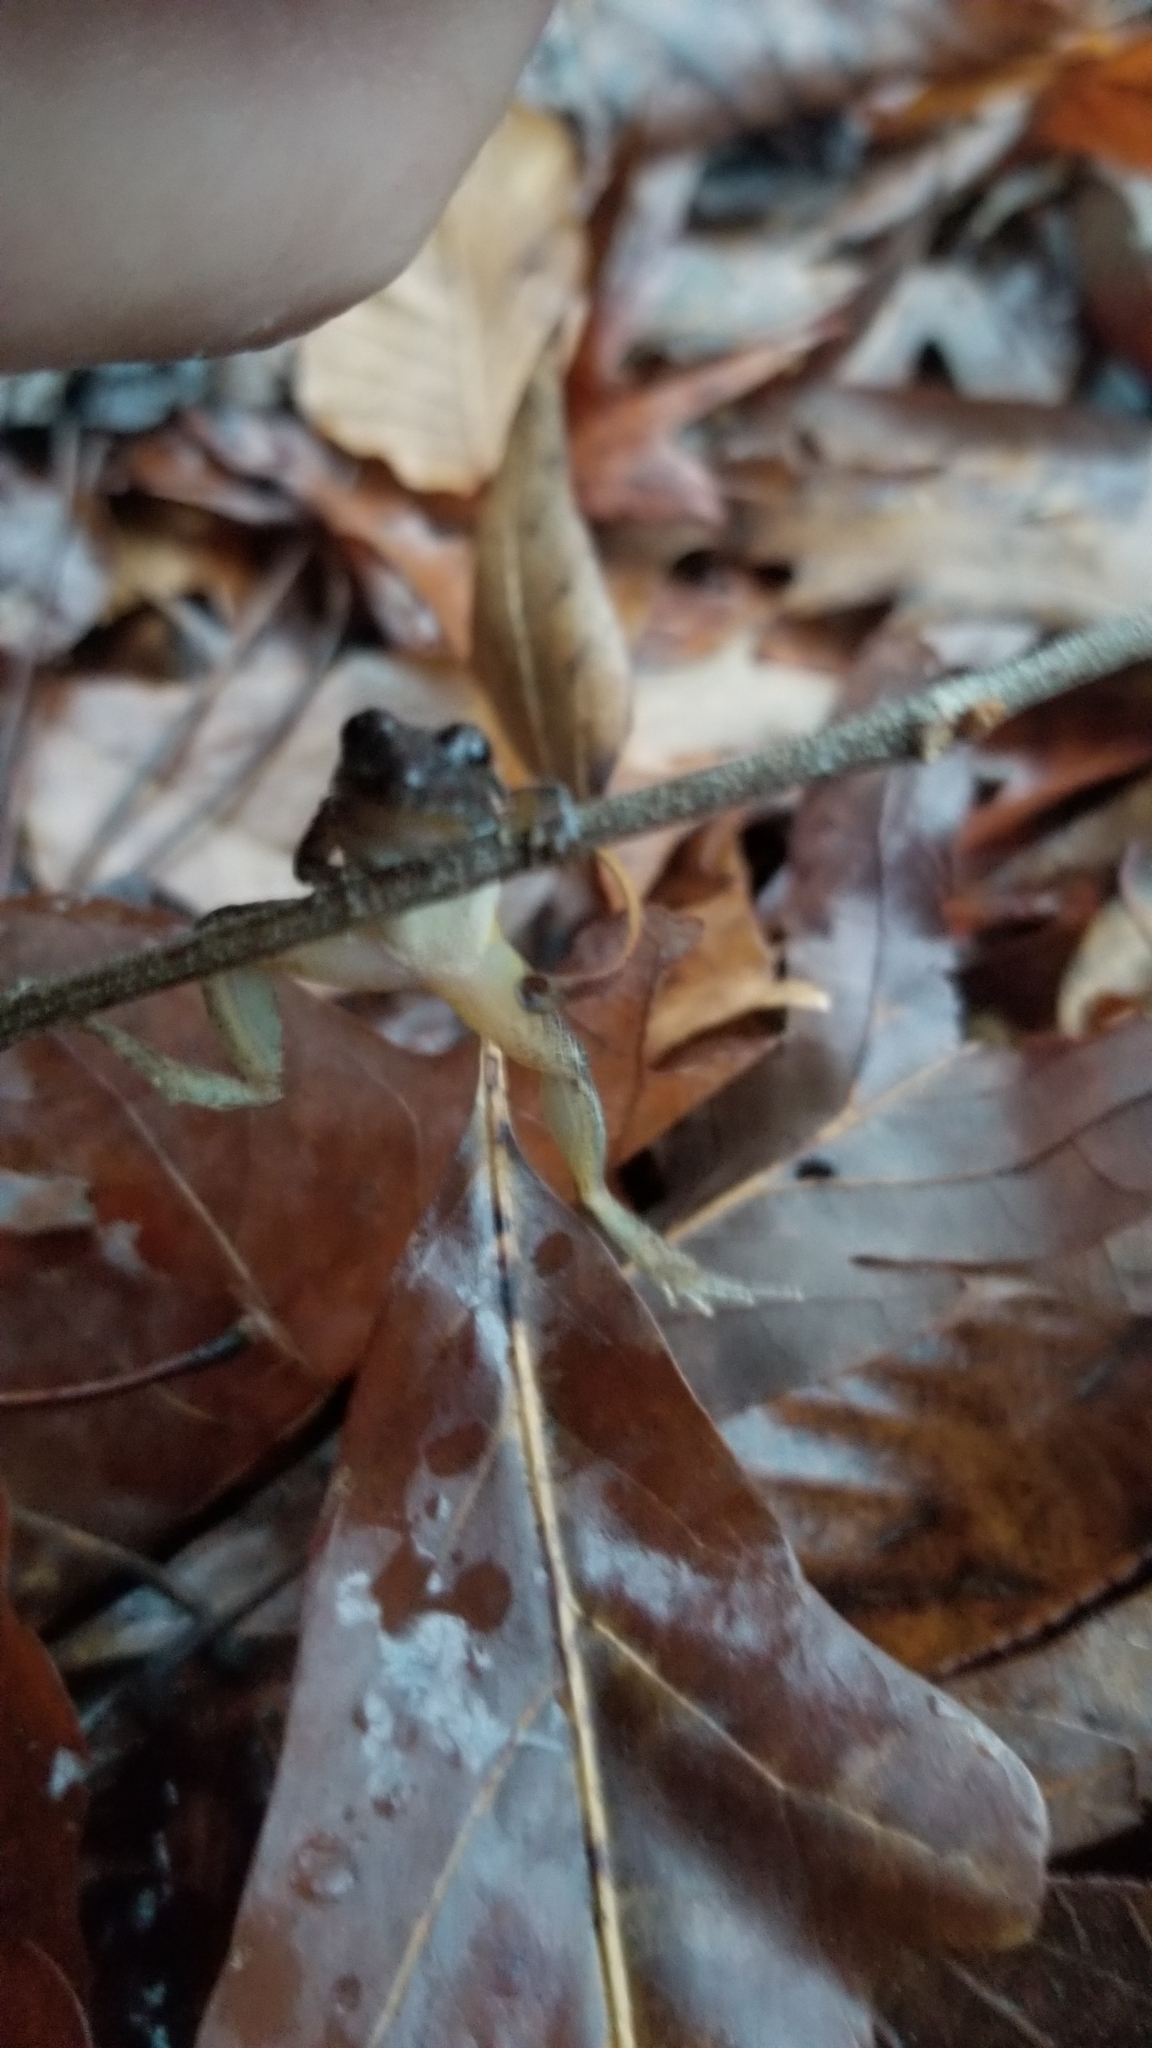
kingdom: Animalia
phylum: Chordata
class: Amphibia
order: Anura
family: Hylidae
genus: Acris
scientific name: Acris gryllus
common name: Southern cricket frog
